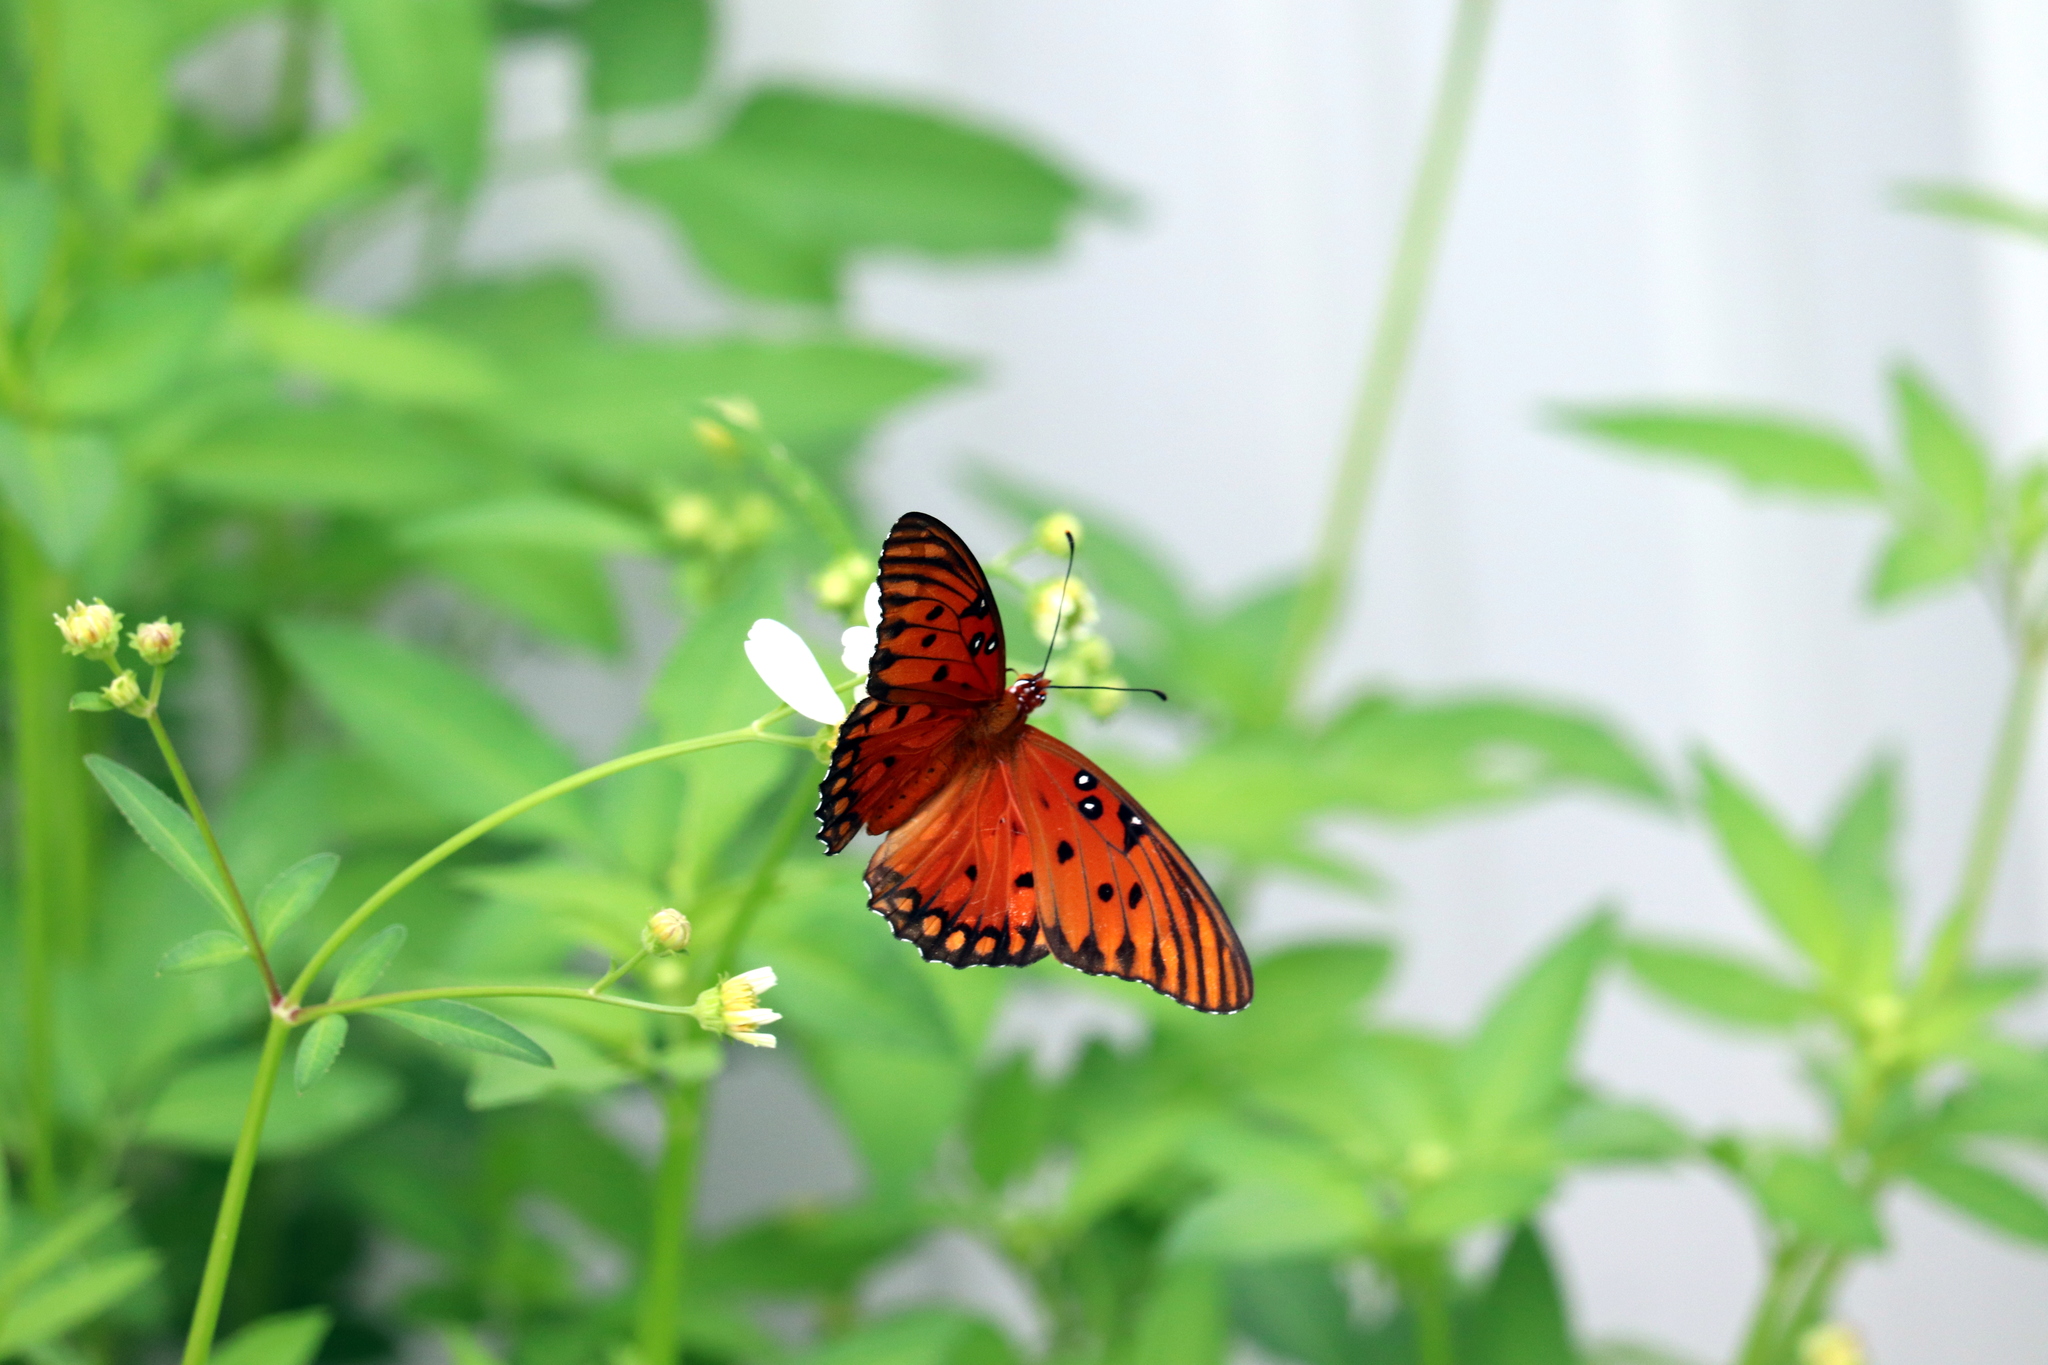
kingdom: Animalia
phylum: Arthropoda
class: Insecta
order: Lepidoptera
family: Nymphalidae
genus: Dione
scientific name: Dione vanillae
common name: Gulf fritillary
